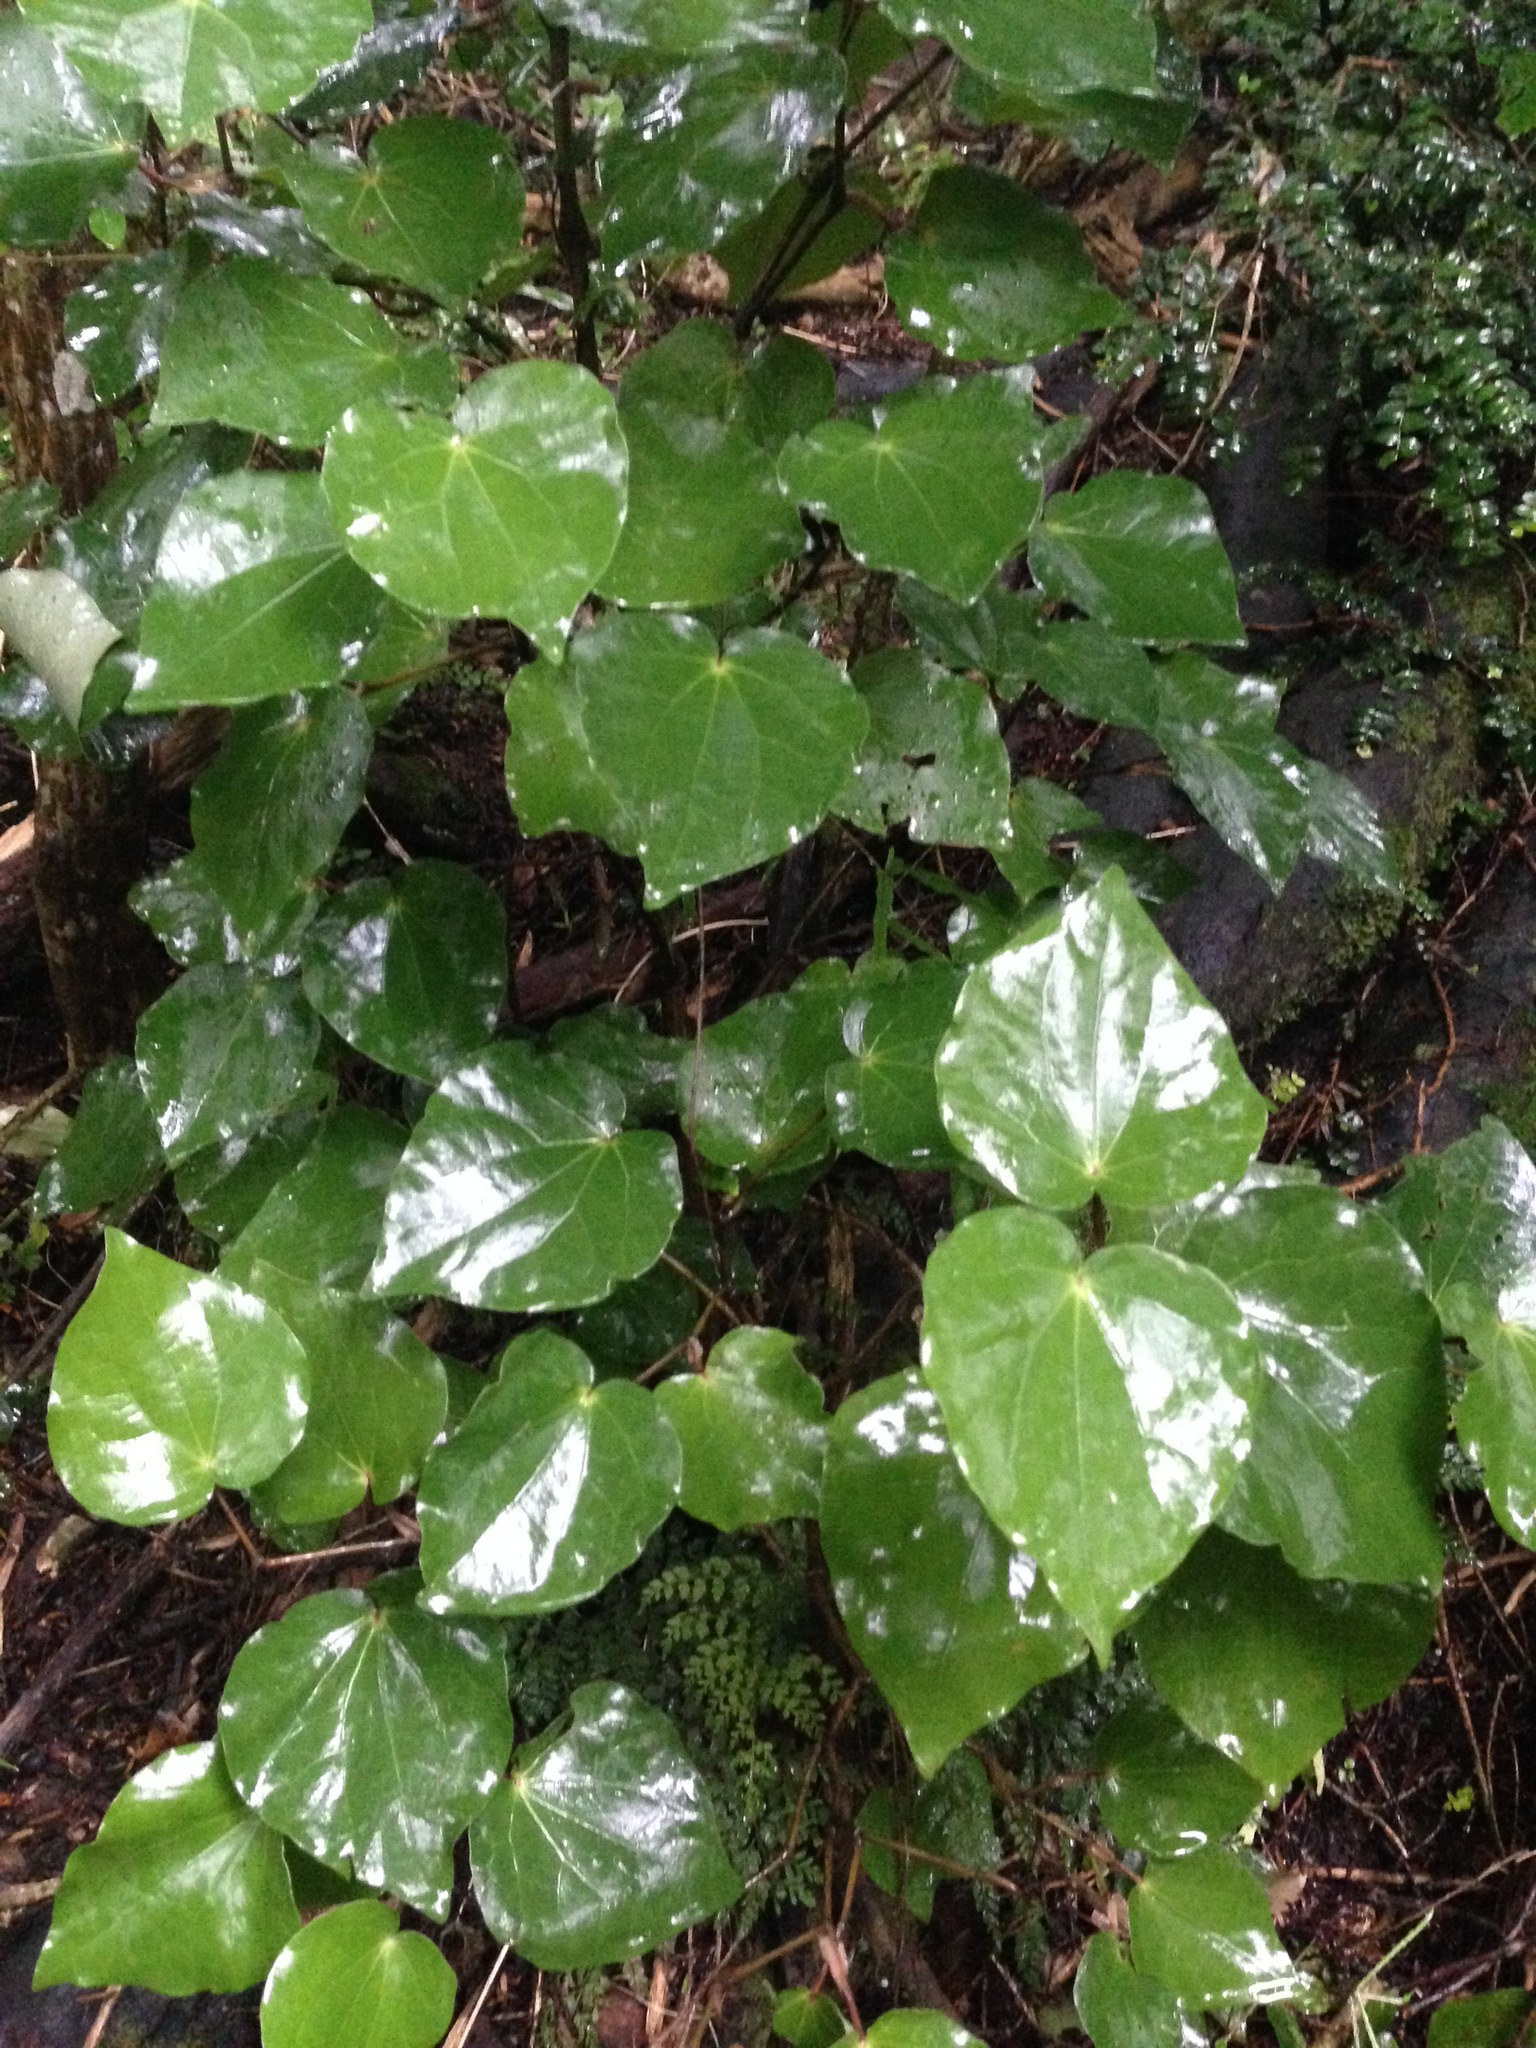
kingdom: Plantae
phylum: Tracheophyta
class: Magnoliopsida
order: Piperales
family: Piperaceae
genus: Macropiper
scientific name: Macropiper excelsum
